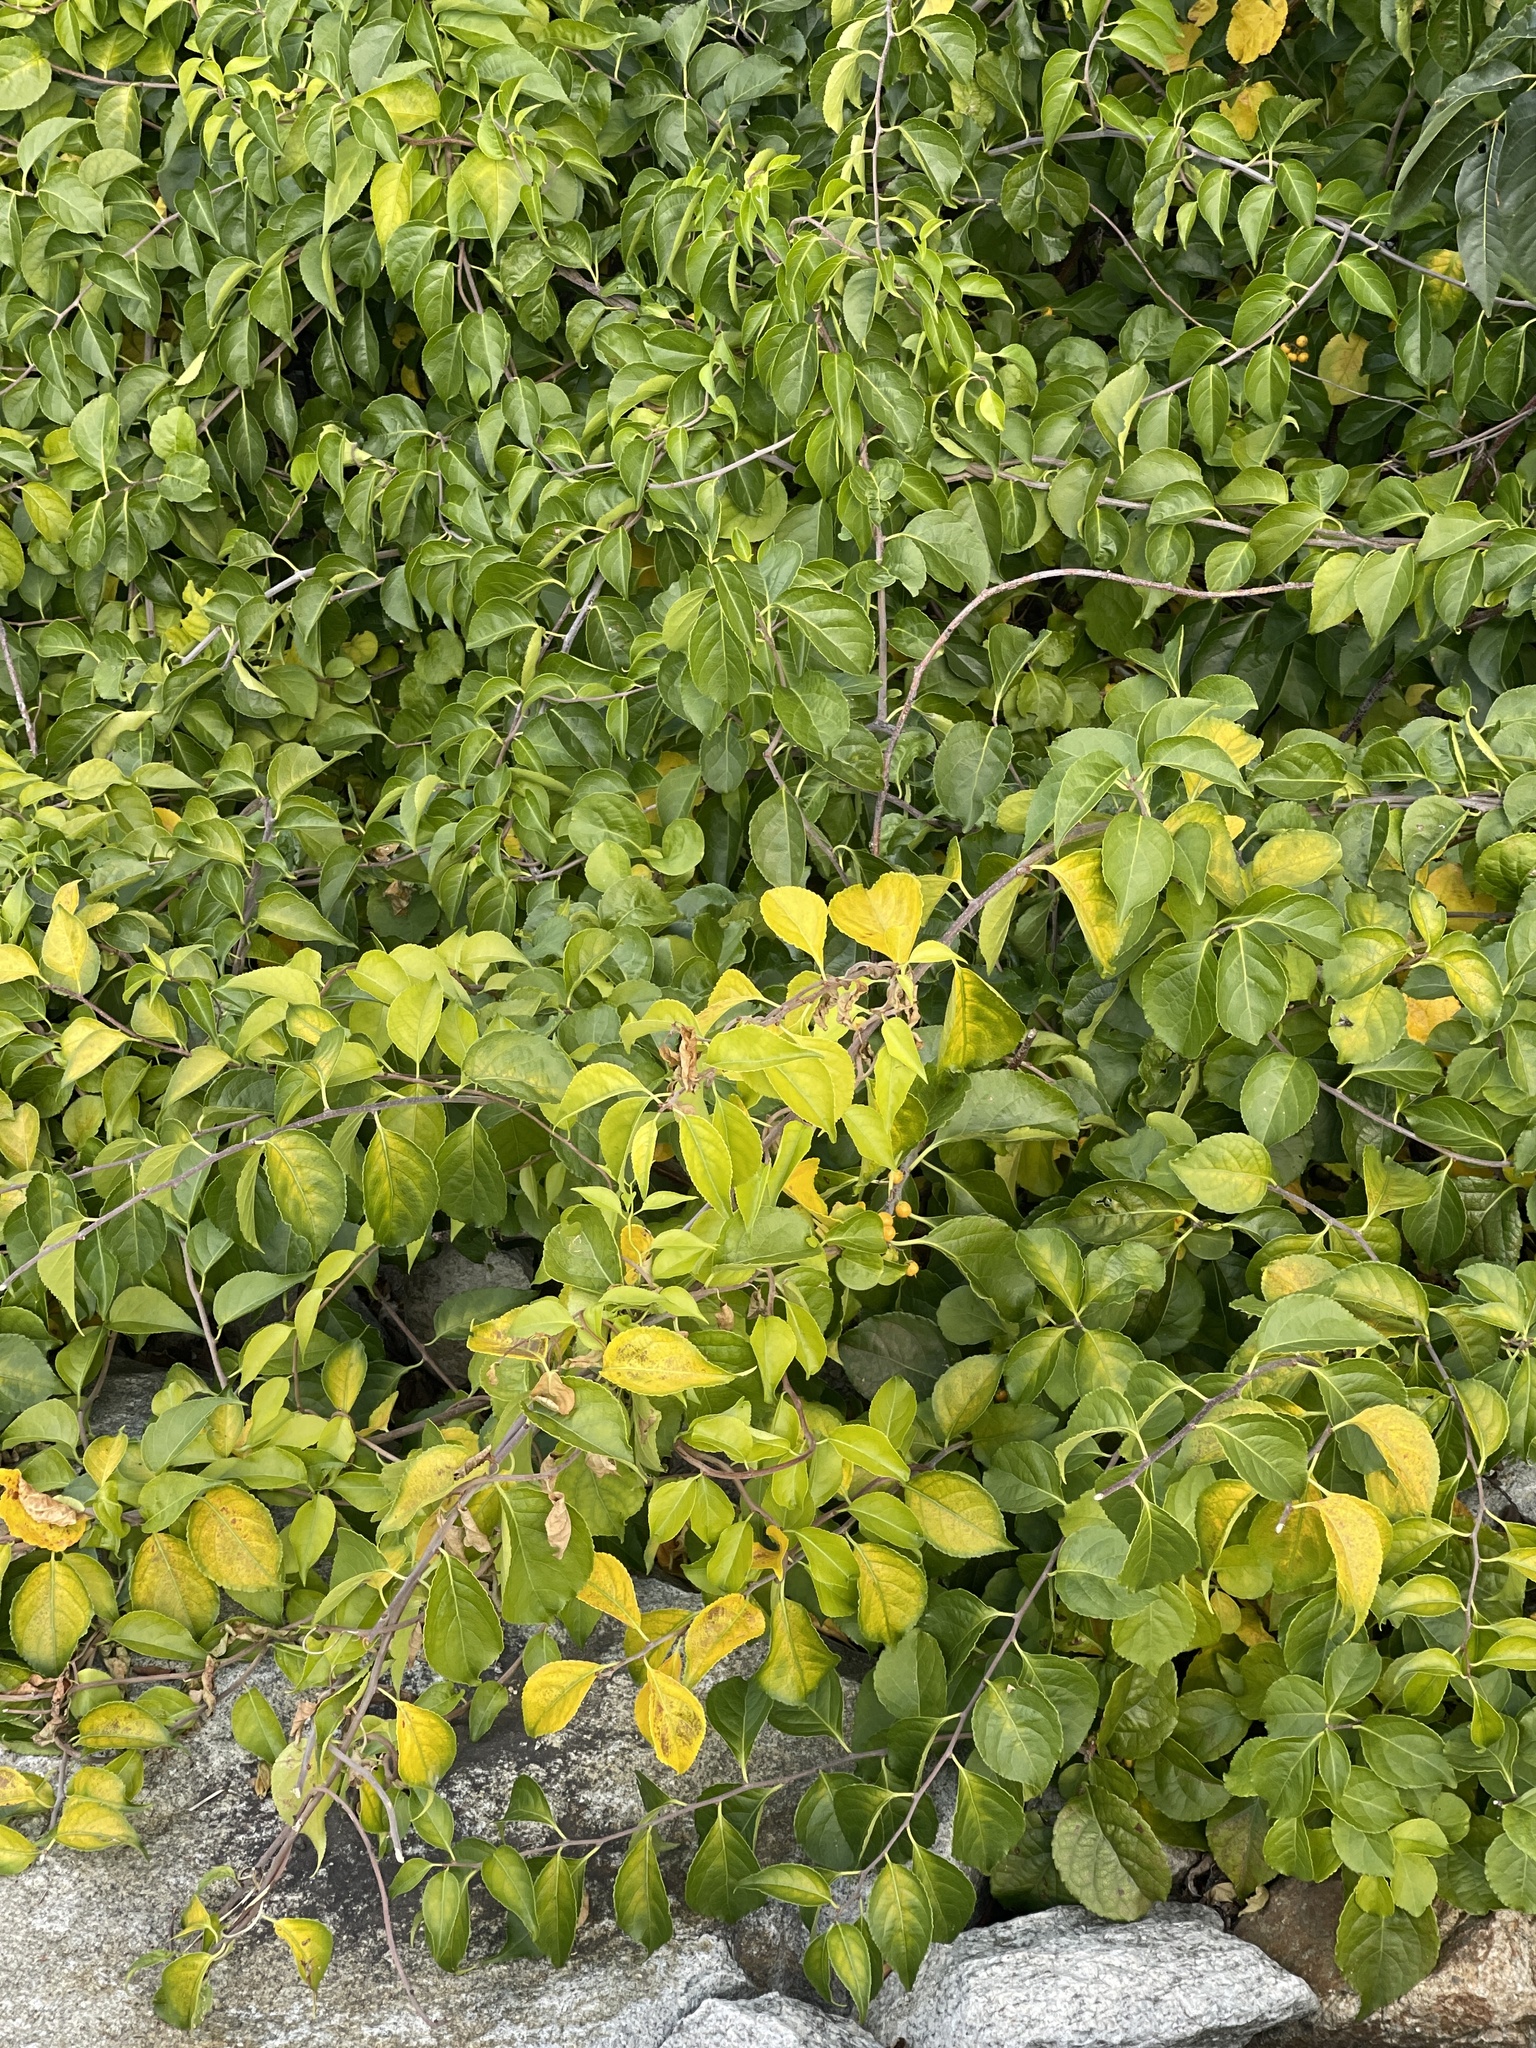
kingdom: Plantae
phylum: Tracheophyta
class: Magnoliopsida
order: Celastrales
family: Celastraceae
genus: Celastrus
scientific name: Celastrus orbiculatus
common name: Oriental bittersweet
